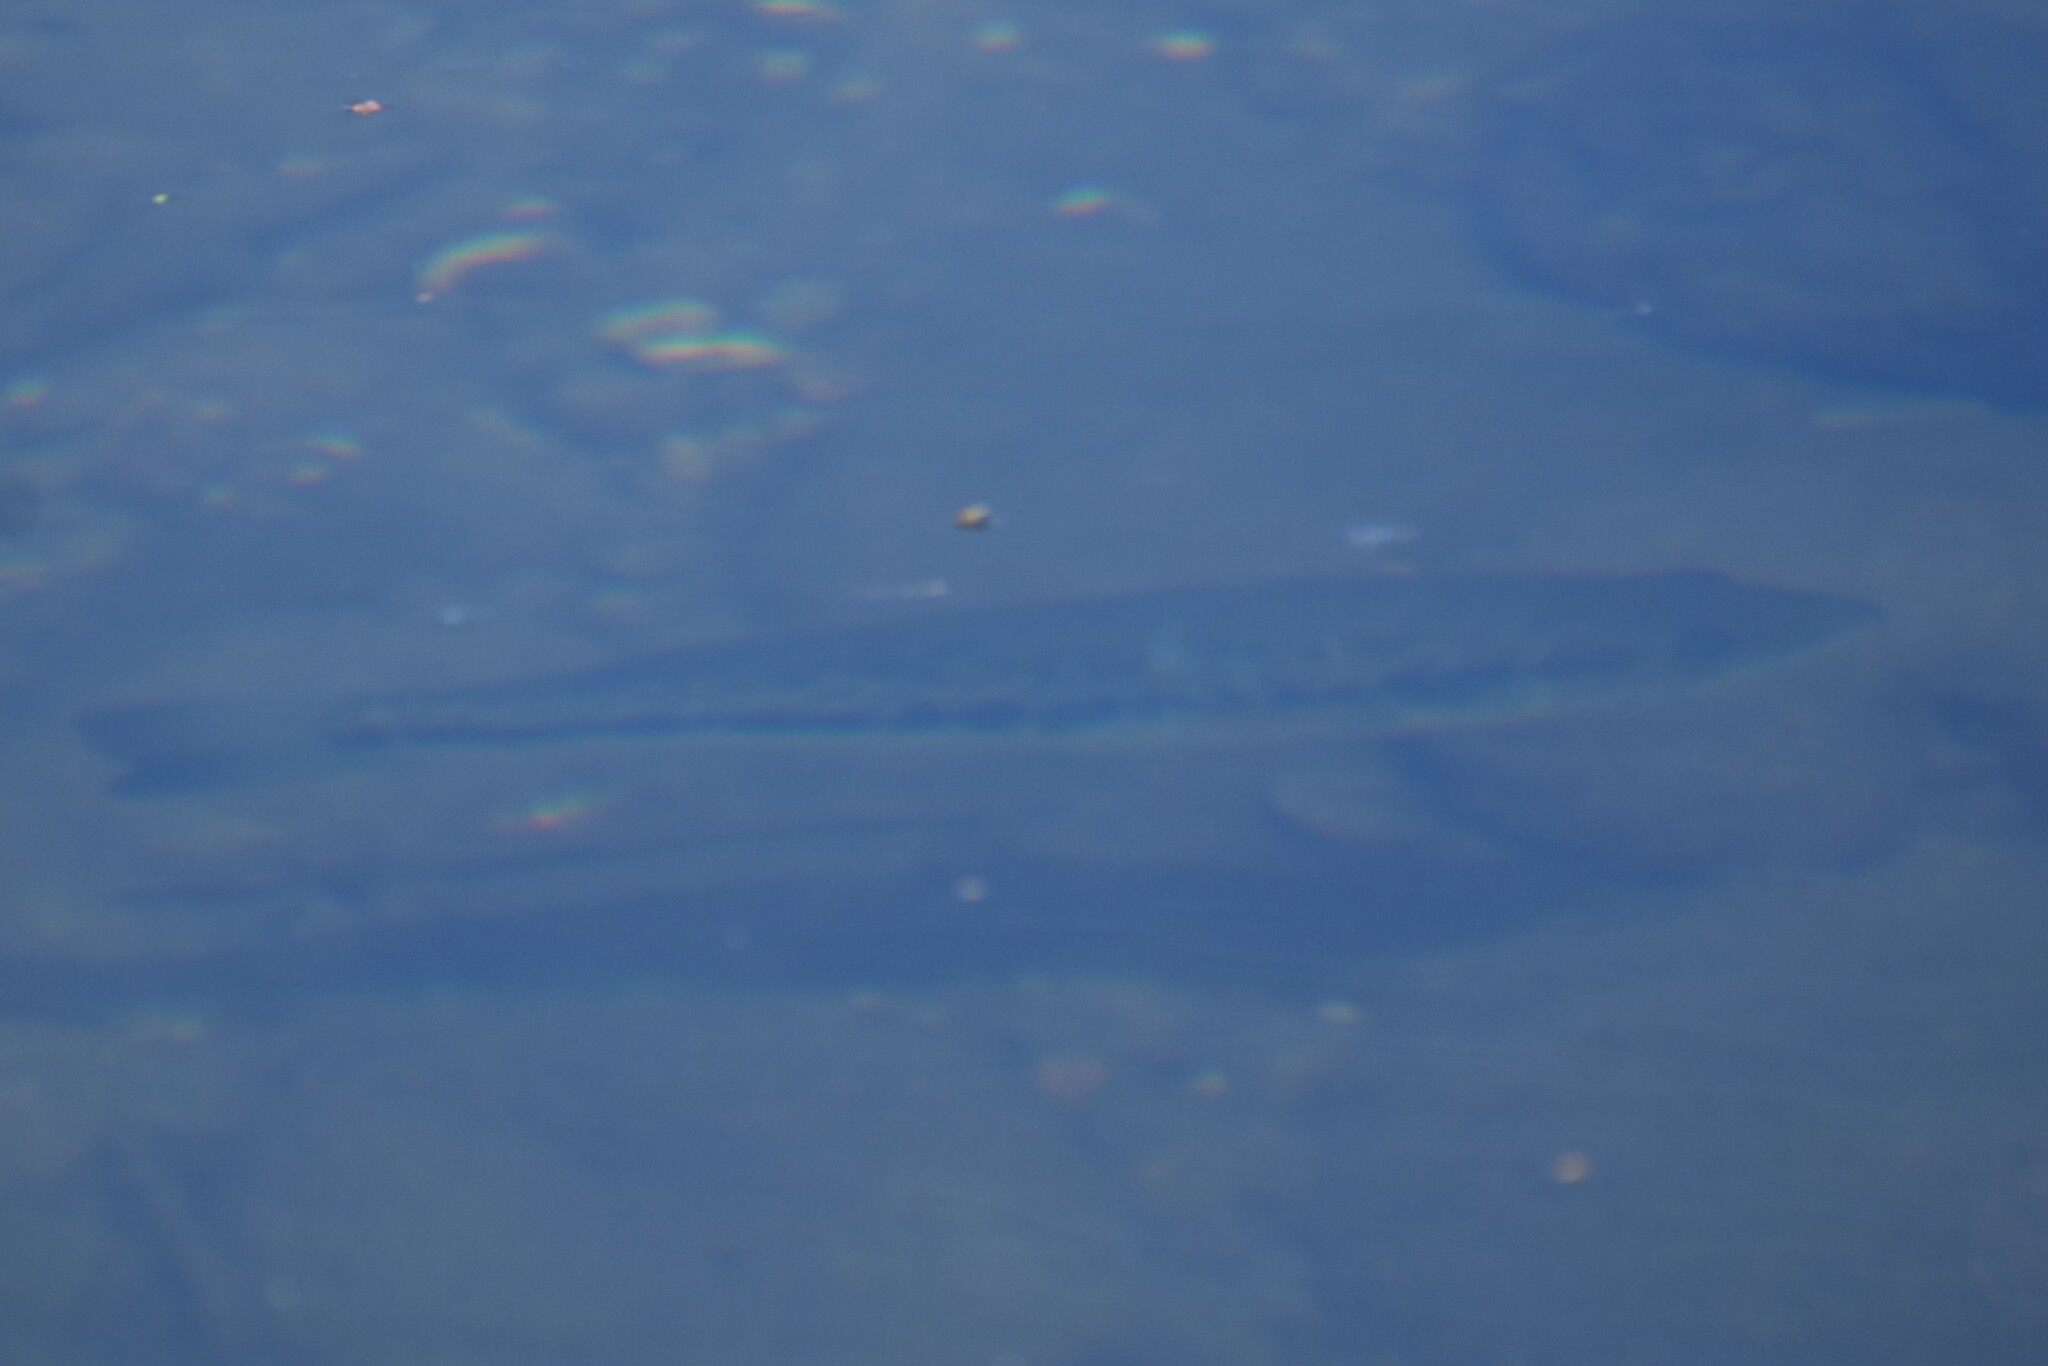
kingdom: Animalia
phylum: Chordata
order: Perciformes
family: Centrarchidae
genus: Micropterus
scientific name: Micropterus
